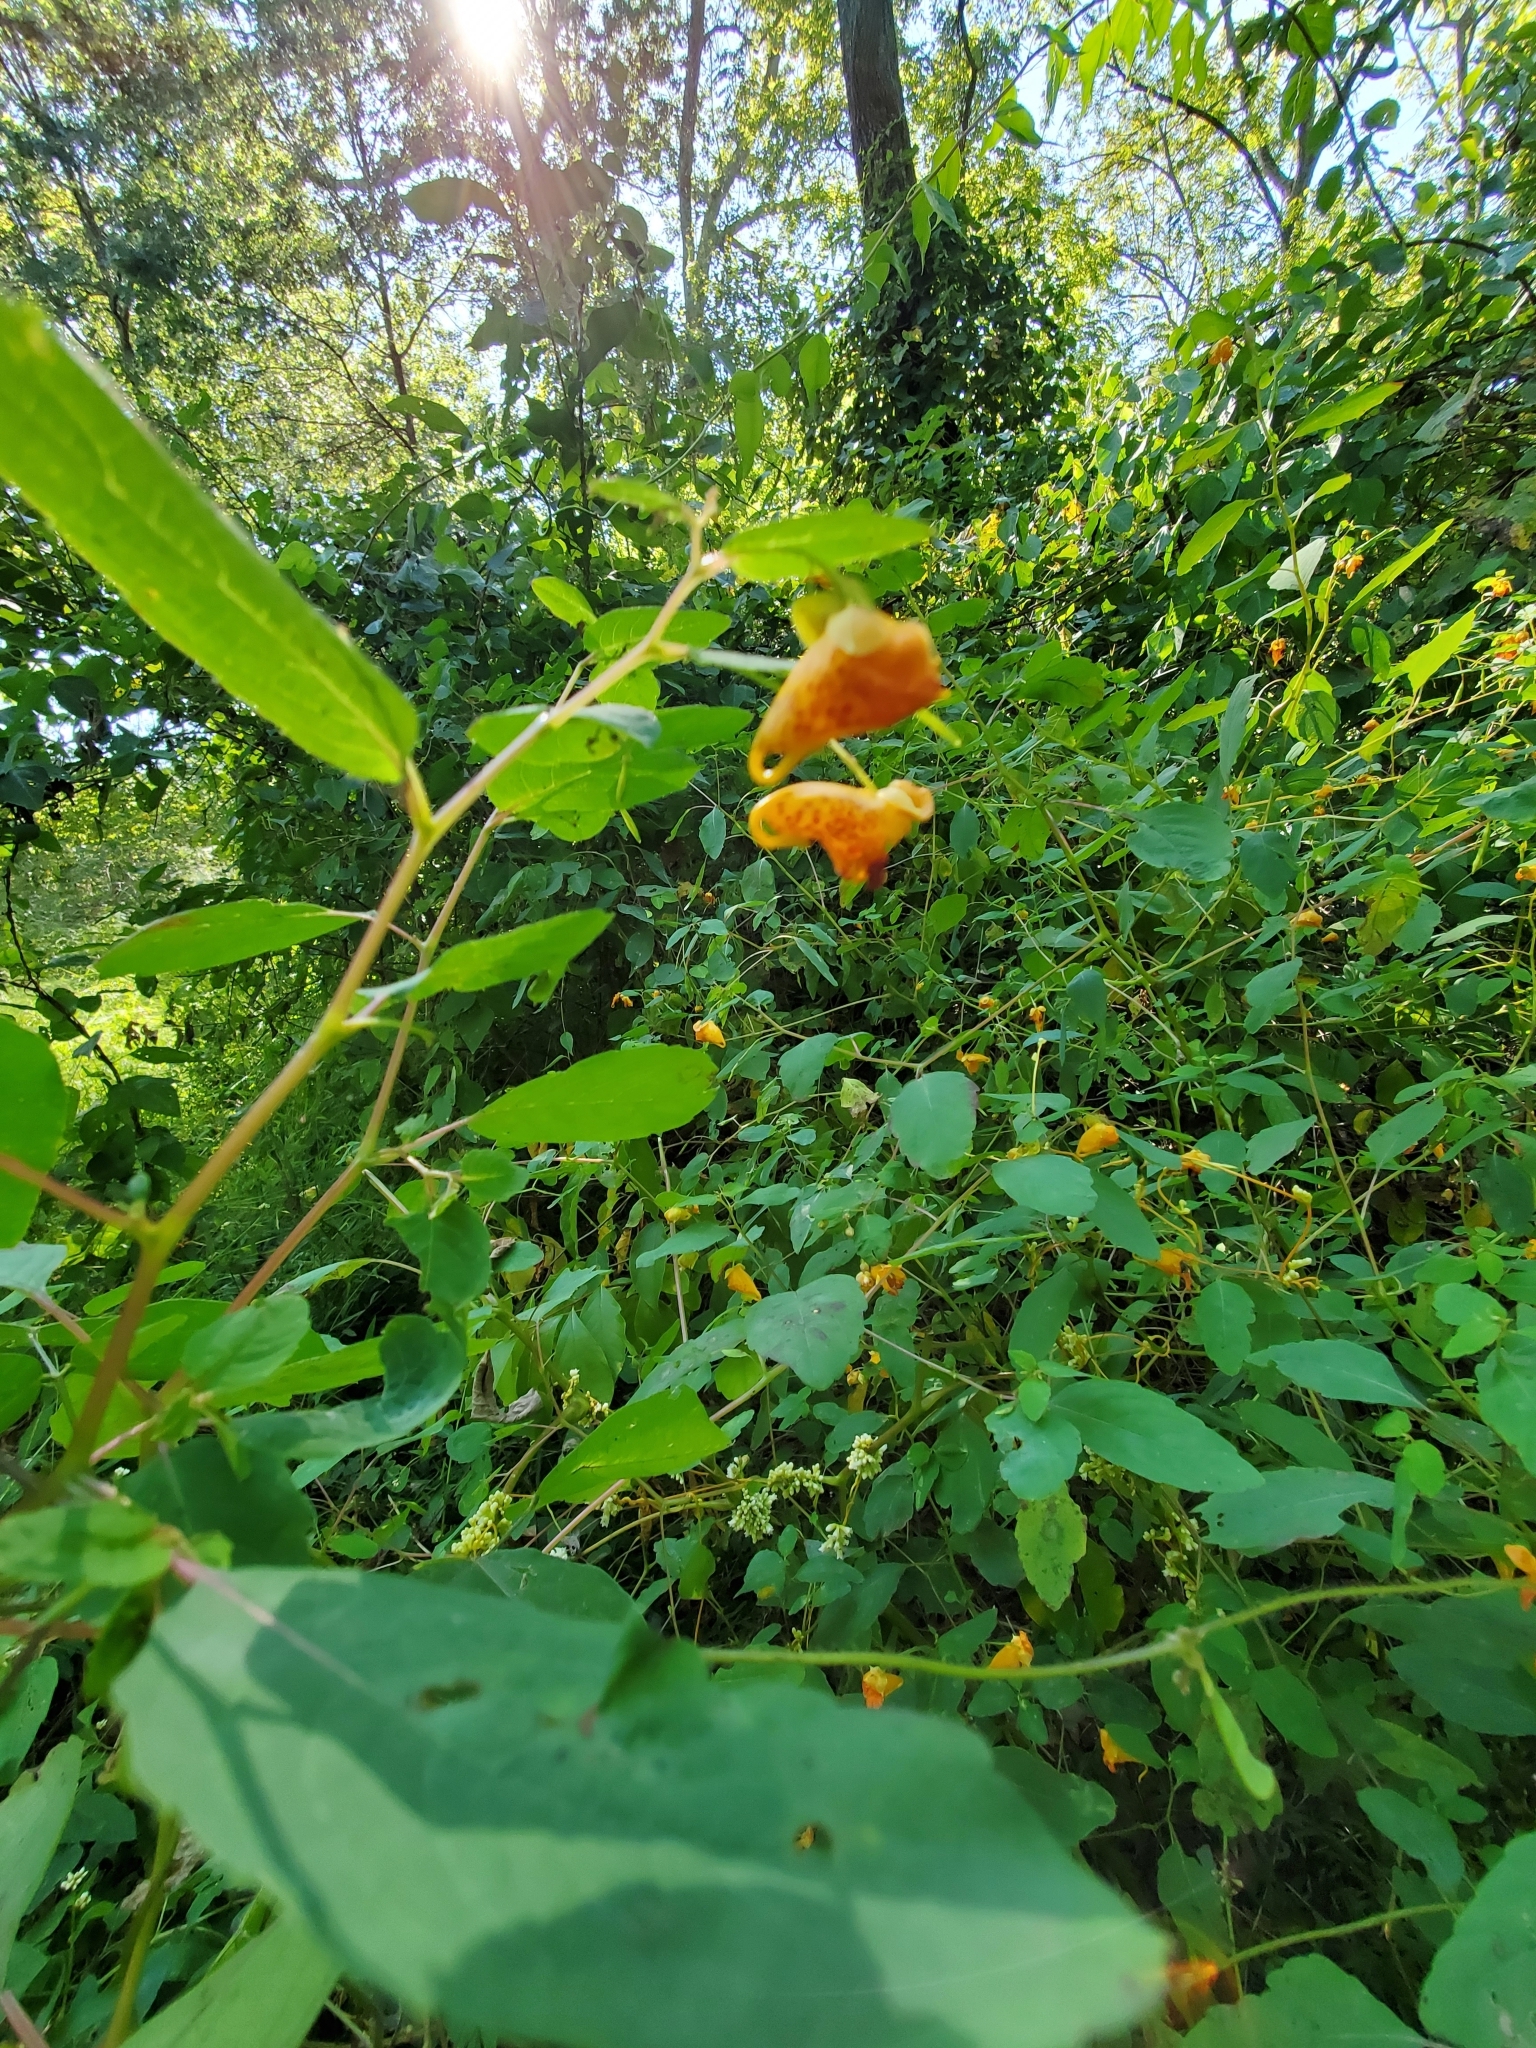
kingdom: Plantae
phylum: Tracheophyta
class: Magnoliopsida
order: Ericales
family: Balsaminaceae
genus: Impatiens
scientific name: Impatiens capensis
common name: Orange balsam
